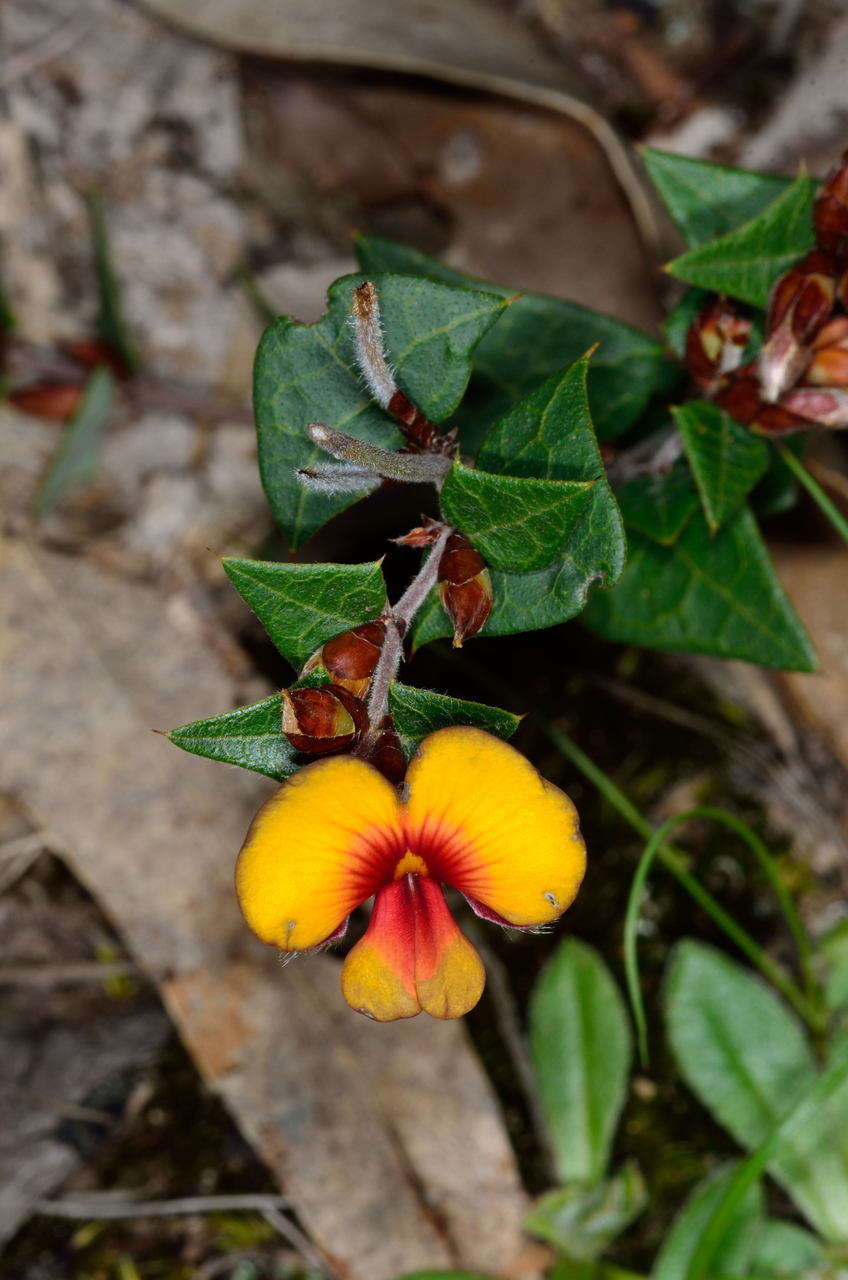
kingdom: Plantae
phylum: Tracheophyta
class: Magnoliopsida
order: Fabales
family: Fabaceae
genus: Platylobium
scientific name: Platylobium obtusangulum
